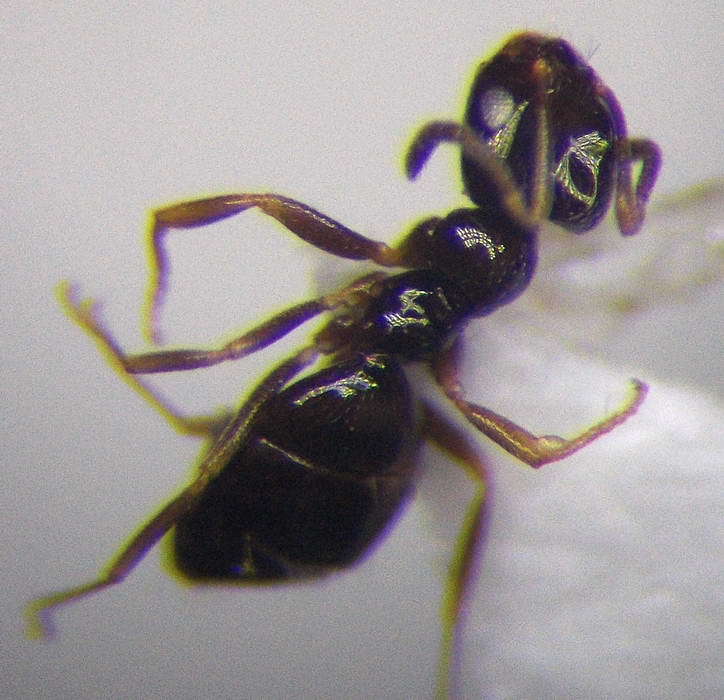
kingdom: Animalia
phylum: Arthropoda
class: Insecta
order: Hymenoptera
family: Formicidae
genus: Plagiolepis
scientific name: Plagiolepis pallescens
